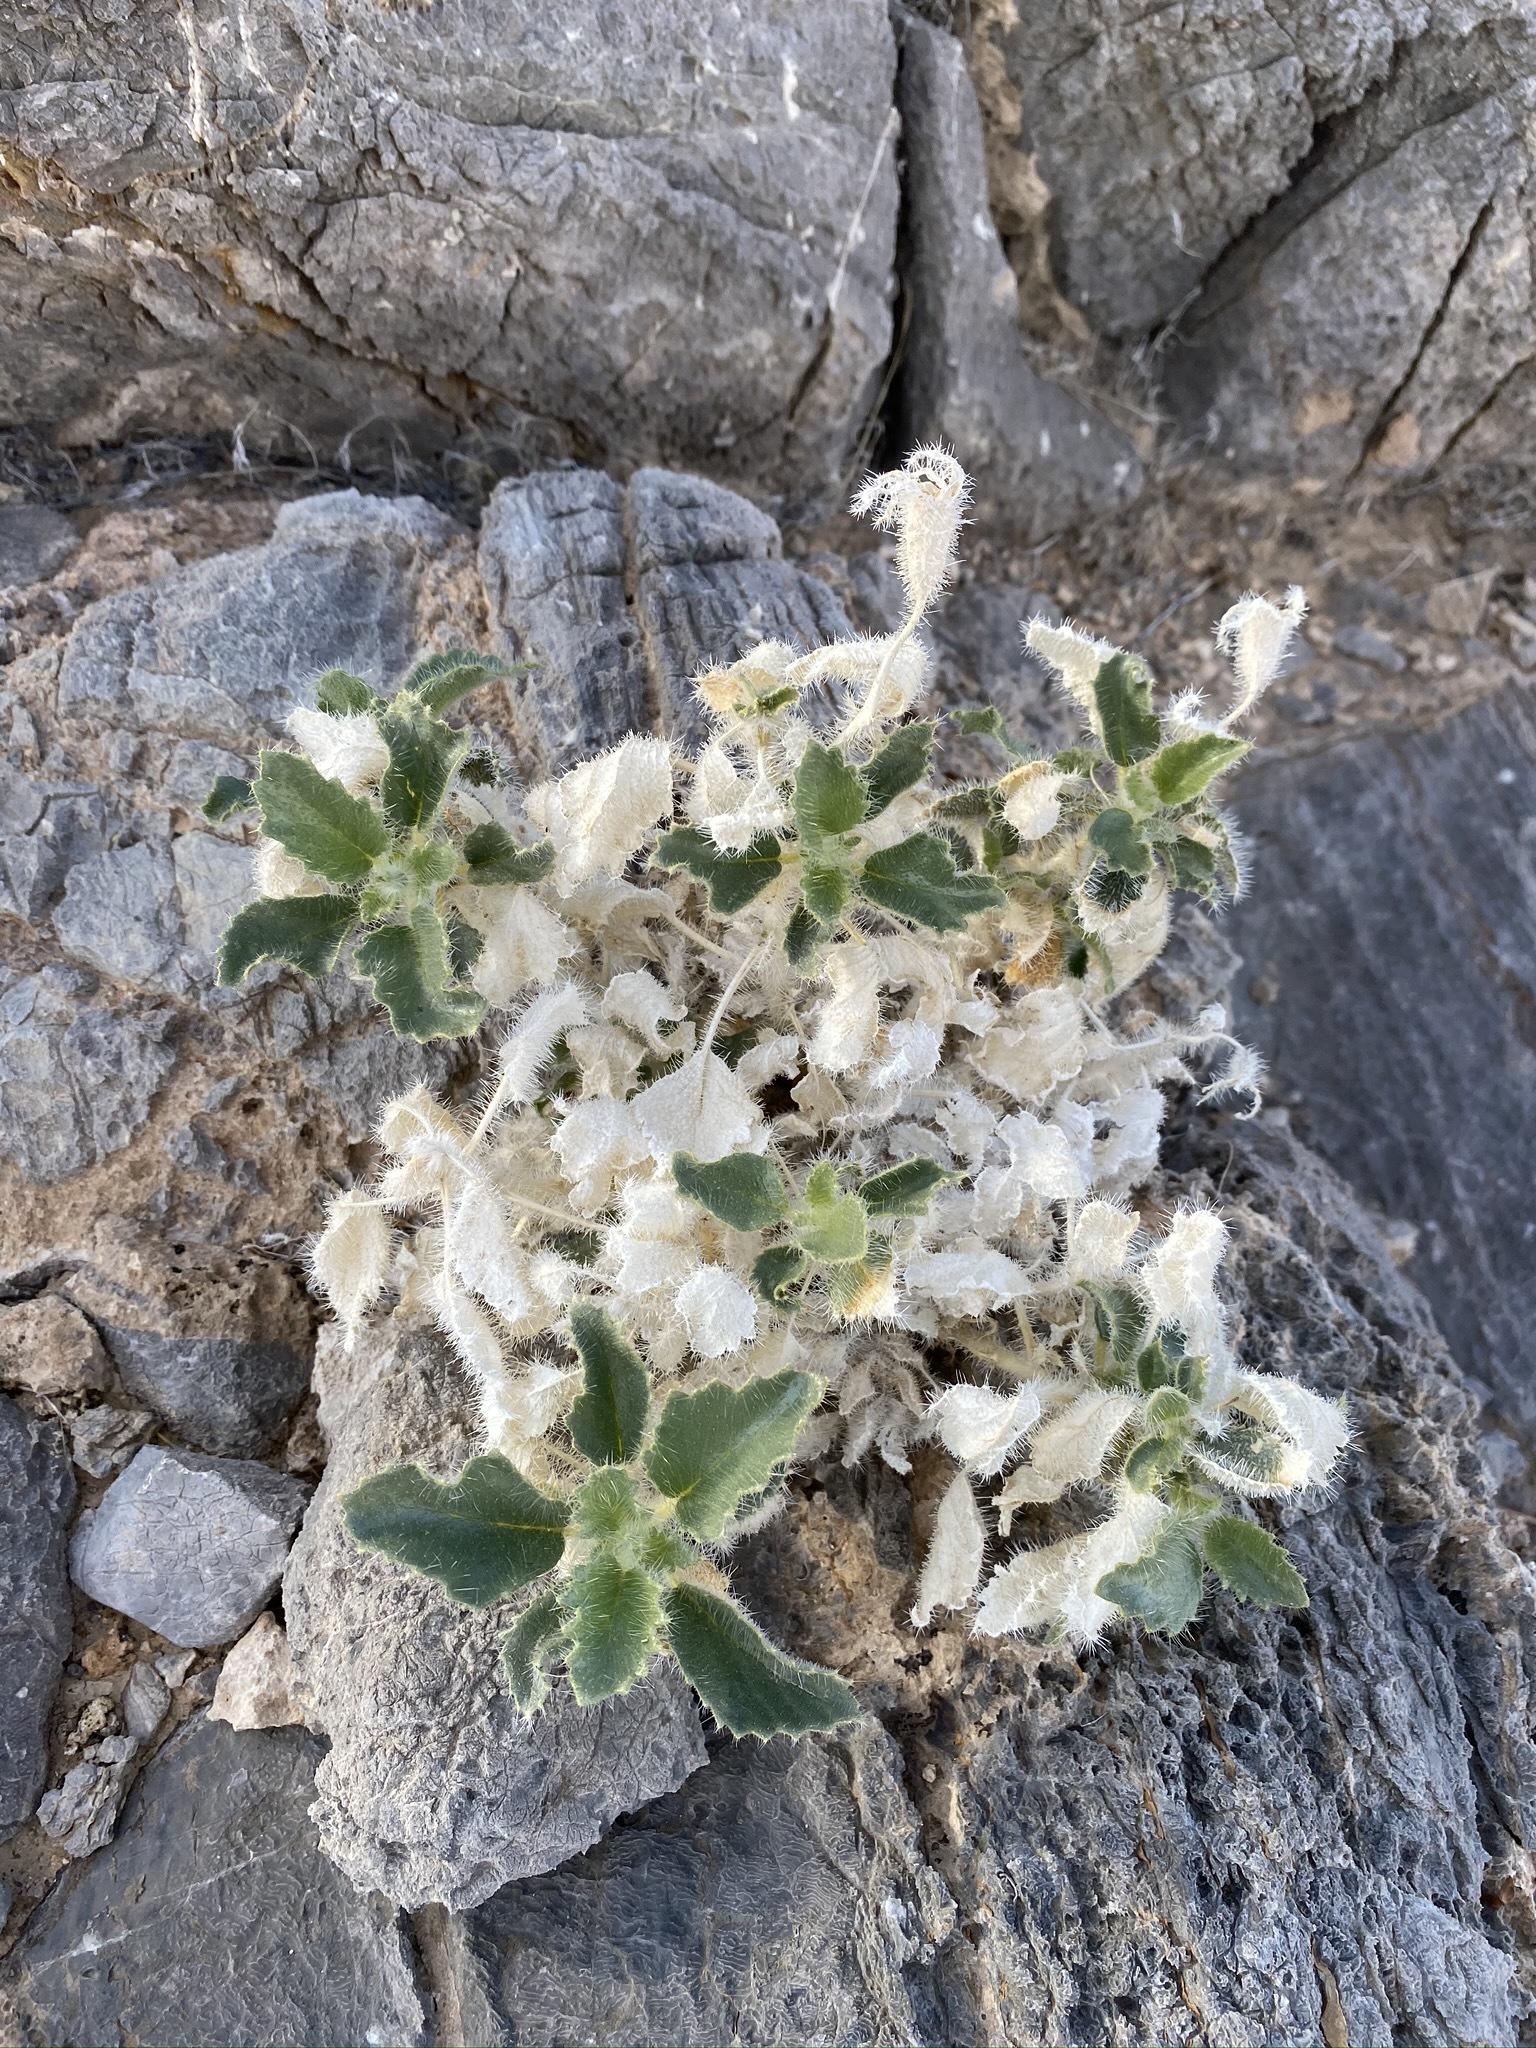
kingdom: Plantae
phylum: Tracheophyta
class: Magnoliopsida
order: Cornales
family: Loasaceae
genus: Eucnide
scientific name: Eucnide urens
